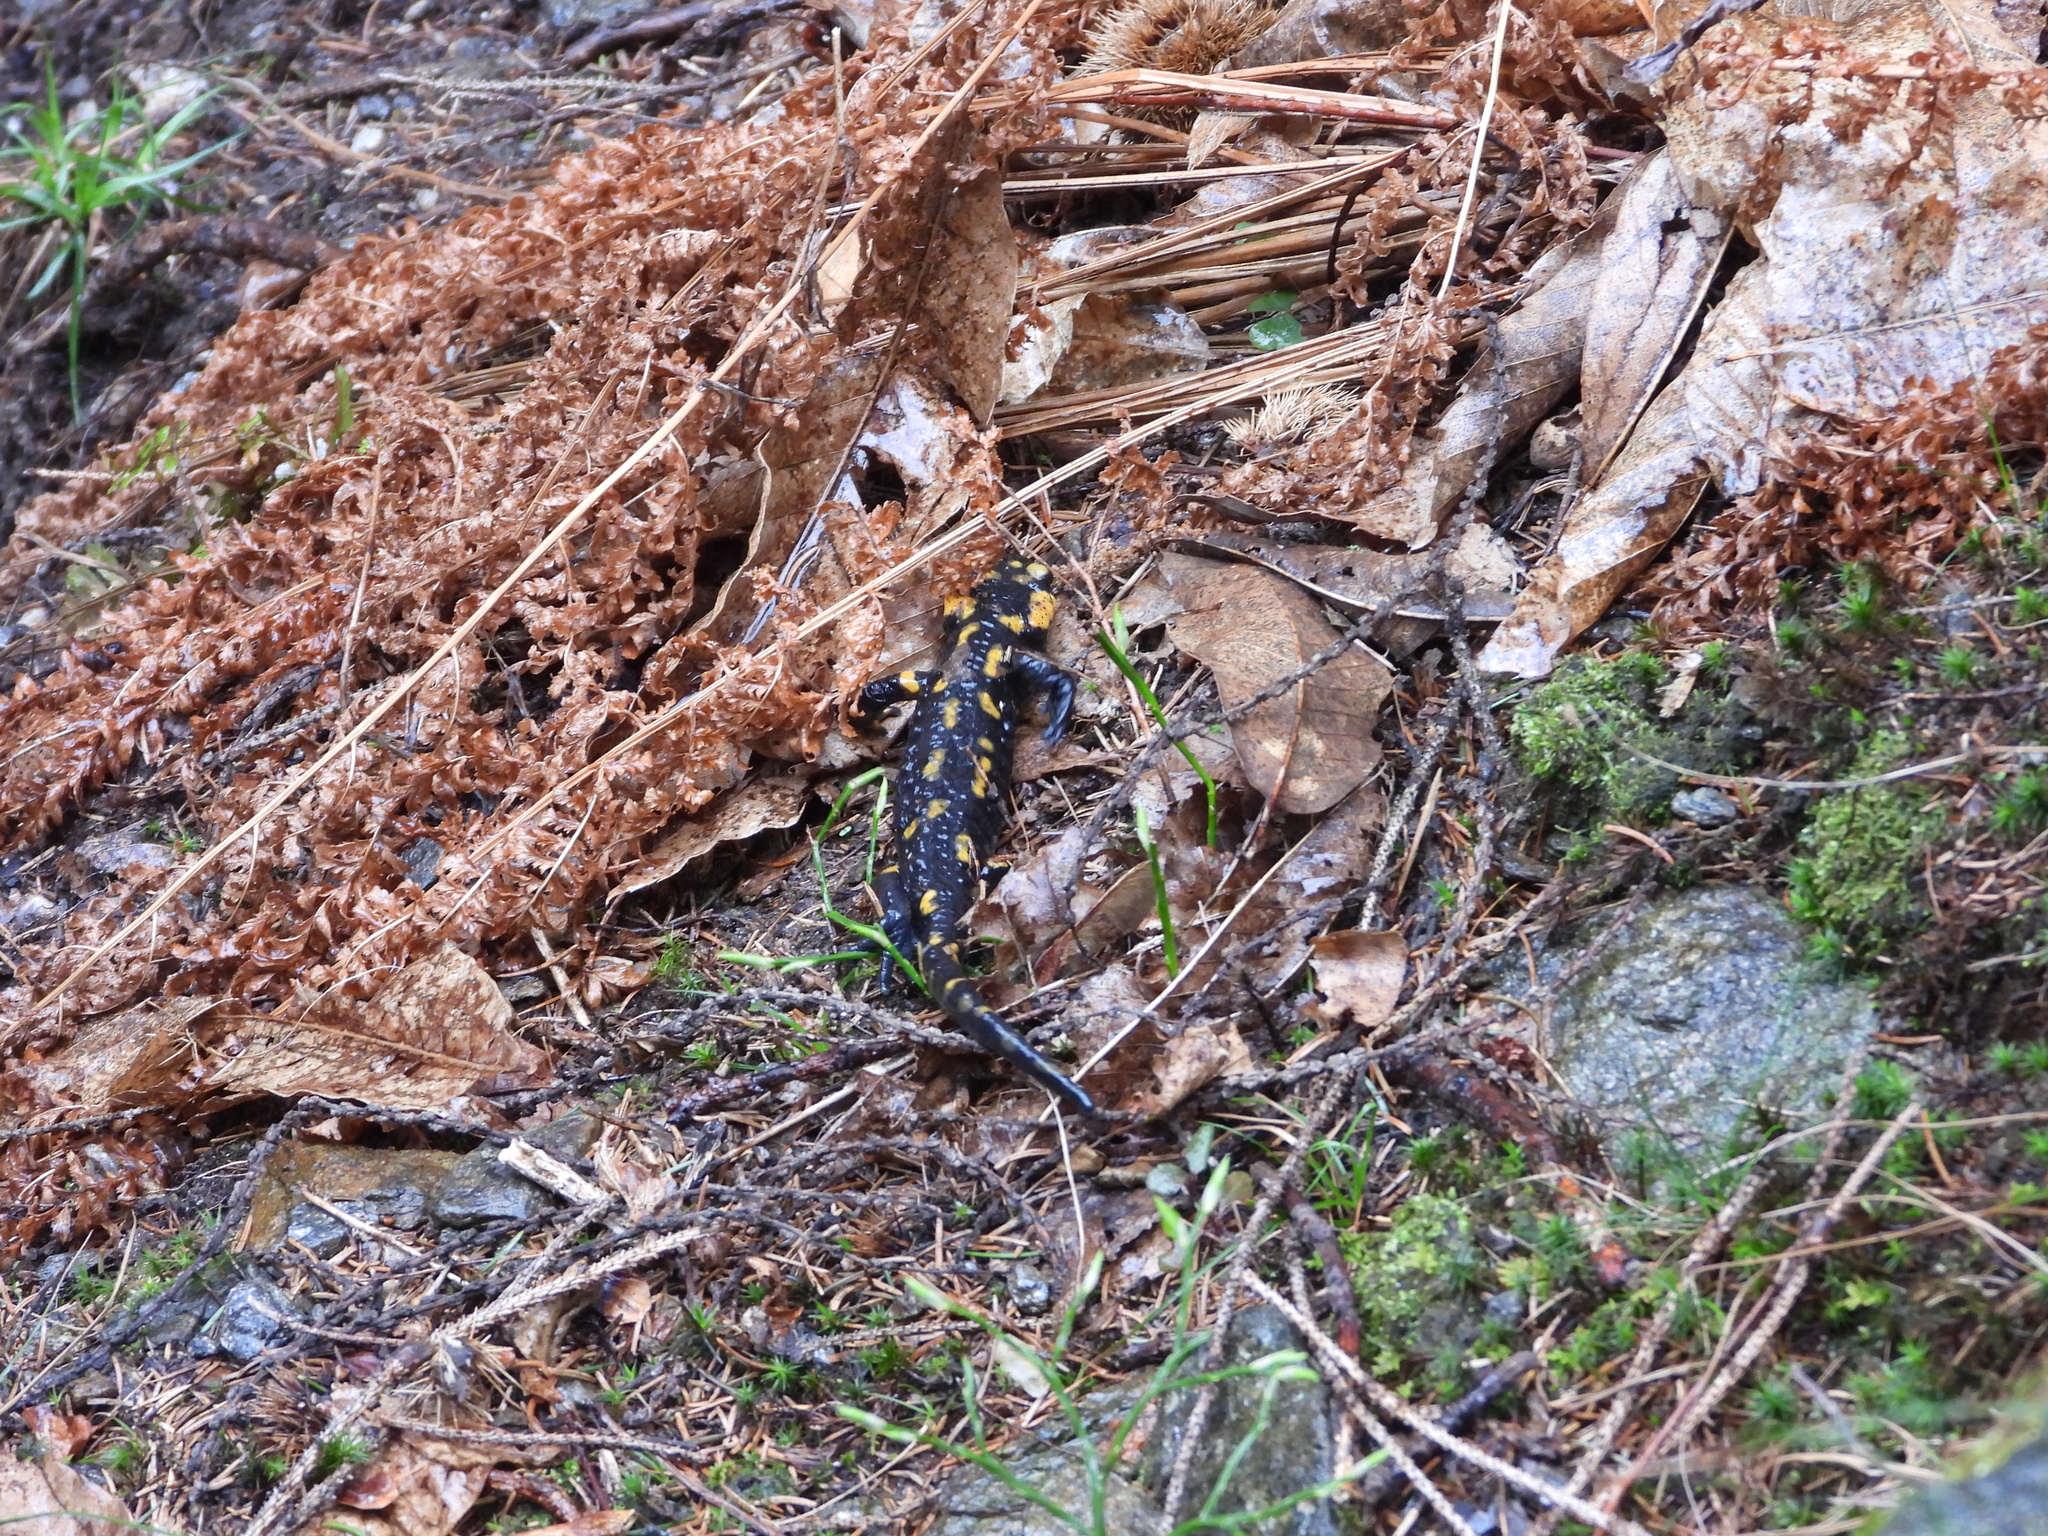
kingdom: Animalia
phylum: Chordata
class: Amphibia
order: Caudata
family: Salamandridae
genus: Salamandra
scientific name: Salamandra salamandra
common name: Fire salamander
